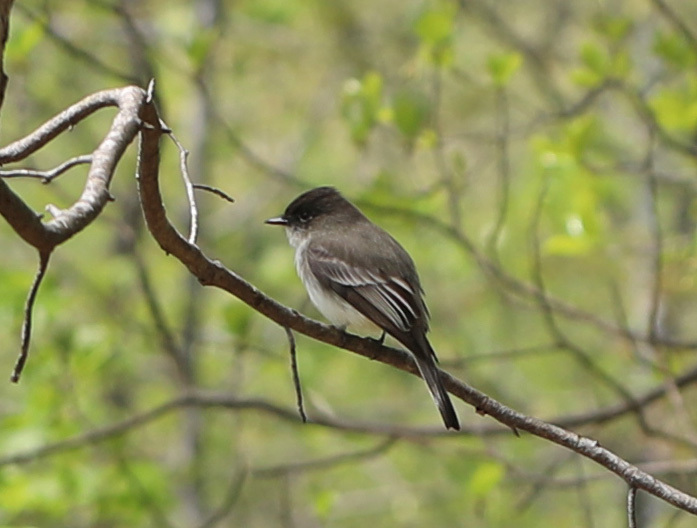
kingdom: Animalia
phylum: Chordata
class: Aves
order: Passeriformes
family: Tyrannidae
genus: Sayornis
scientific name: Sayornis phoebe
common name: Eastern phoebe
